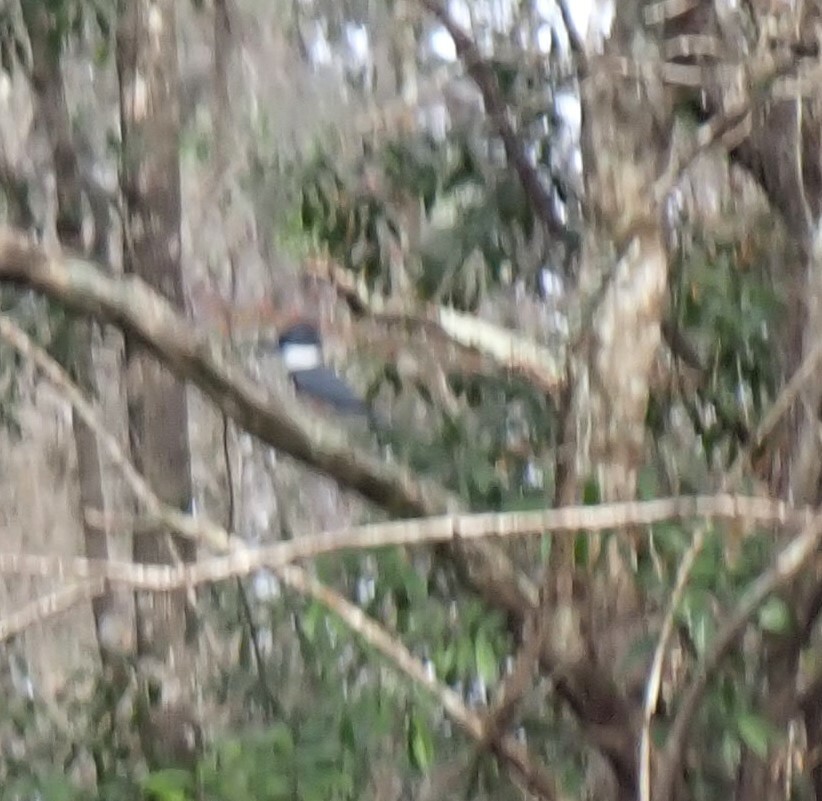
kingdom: Animalia
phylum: Chordata
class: Aves
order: Coraciiformes
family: Alcedinidae
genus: Megaceryle
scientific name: Megaceryle alcyon
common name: Belted kingfisher
